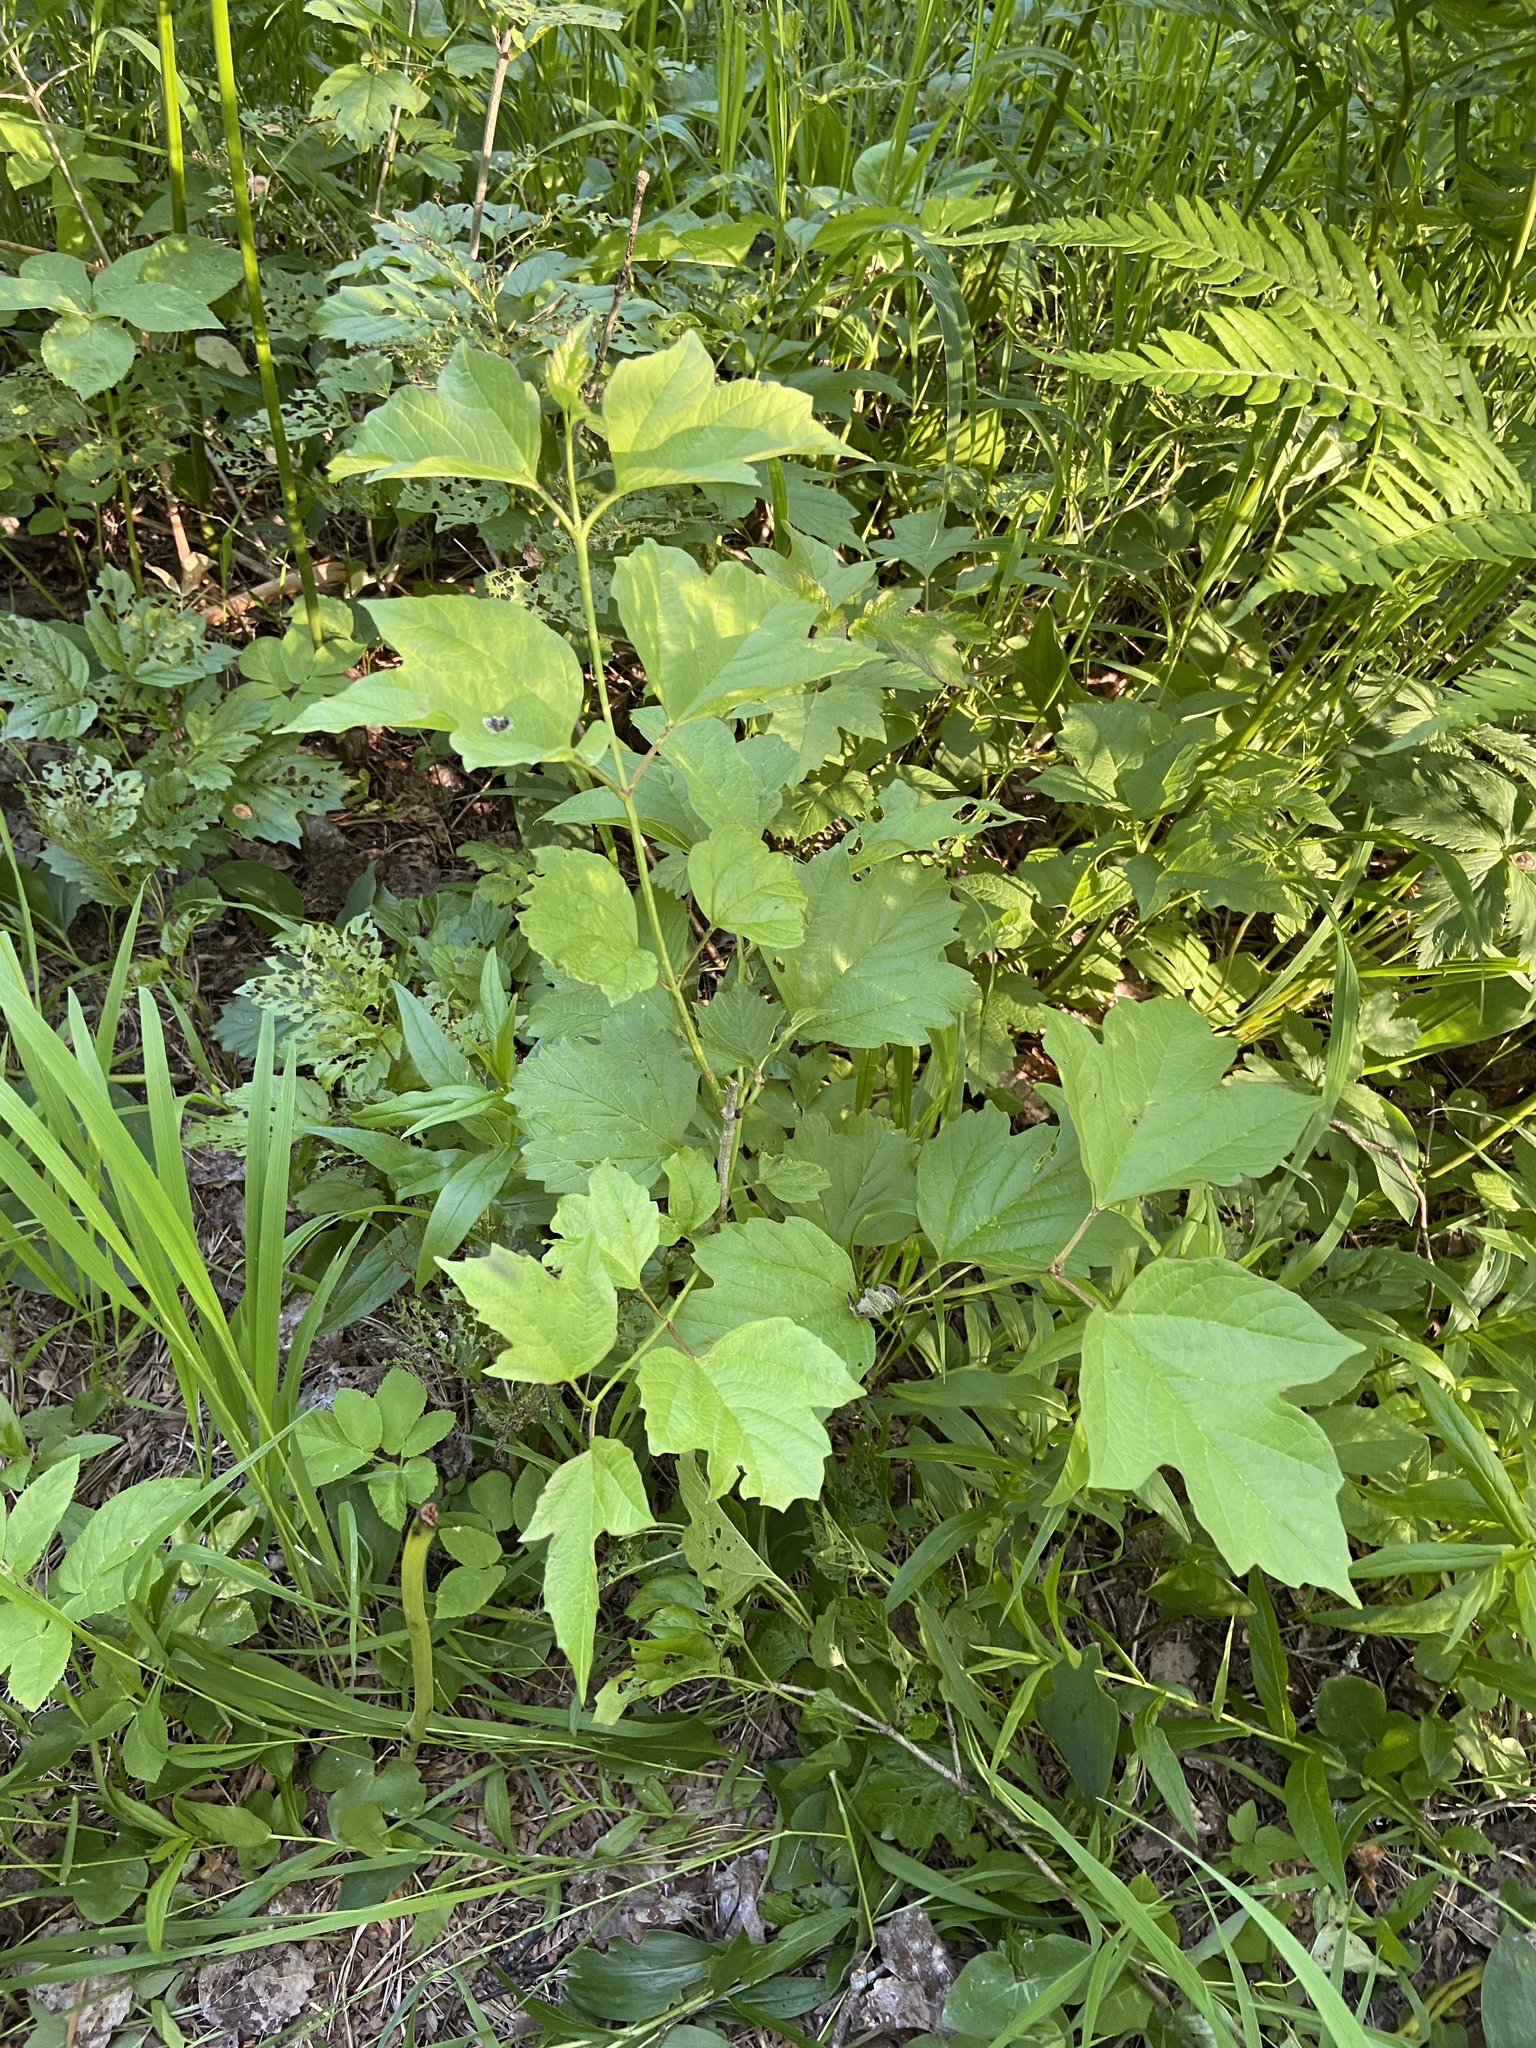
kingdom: Plantae
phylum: Tracheophyta
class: Magnoliopsida
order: Dipsacales
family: Viburnaceae
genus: Viburnum
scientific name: Viburnum opulus
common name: Guelder-rose
